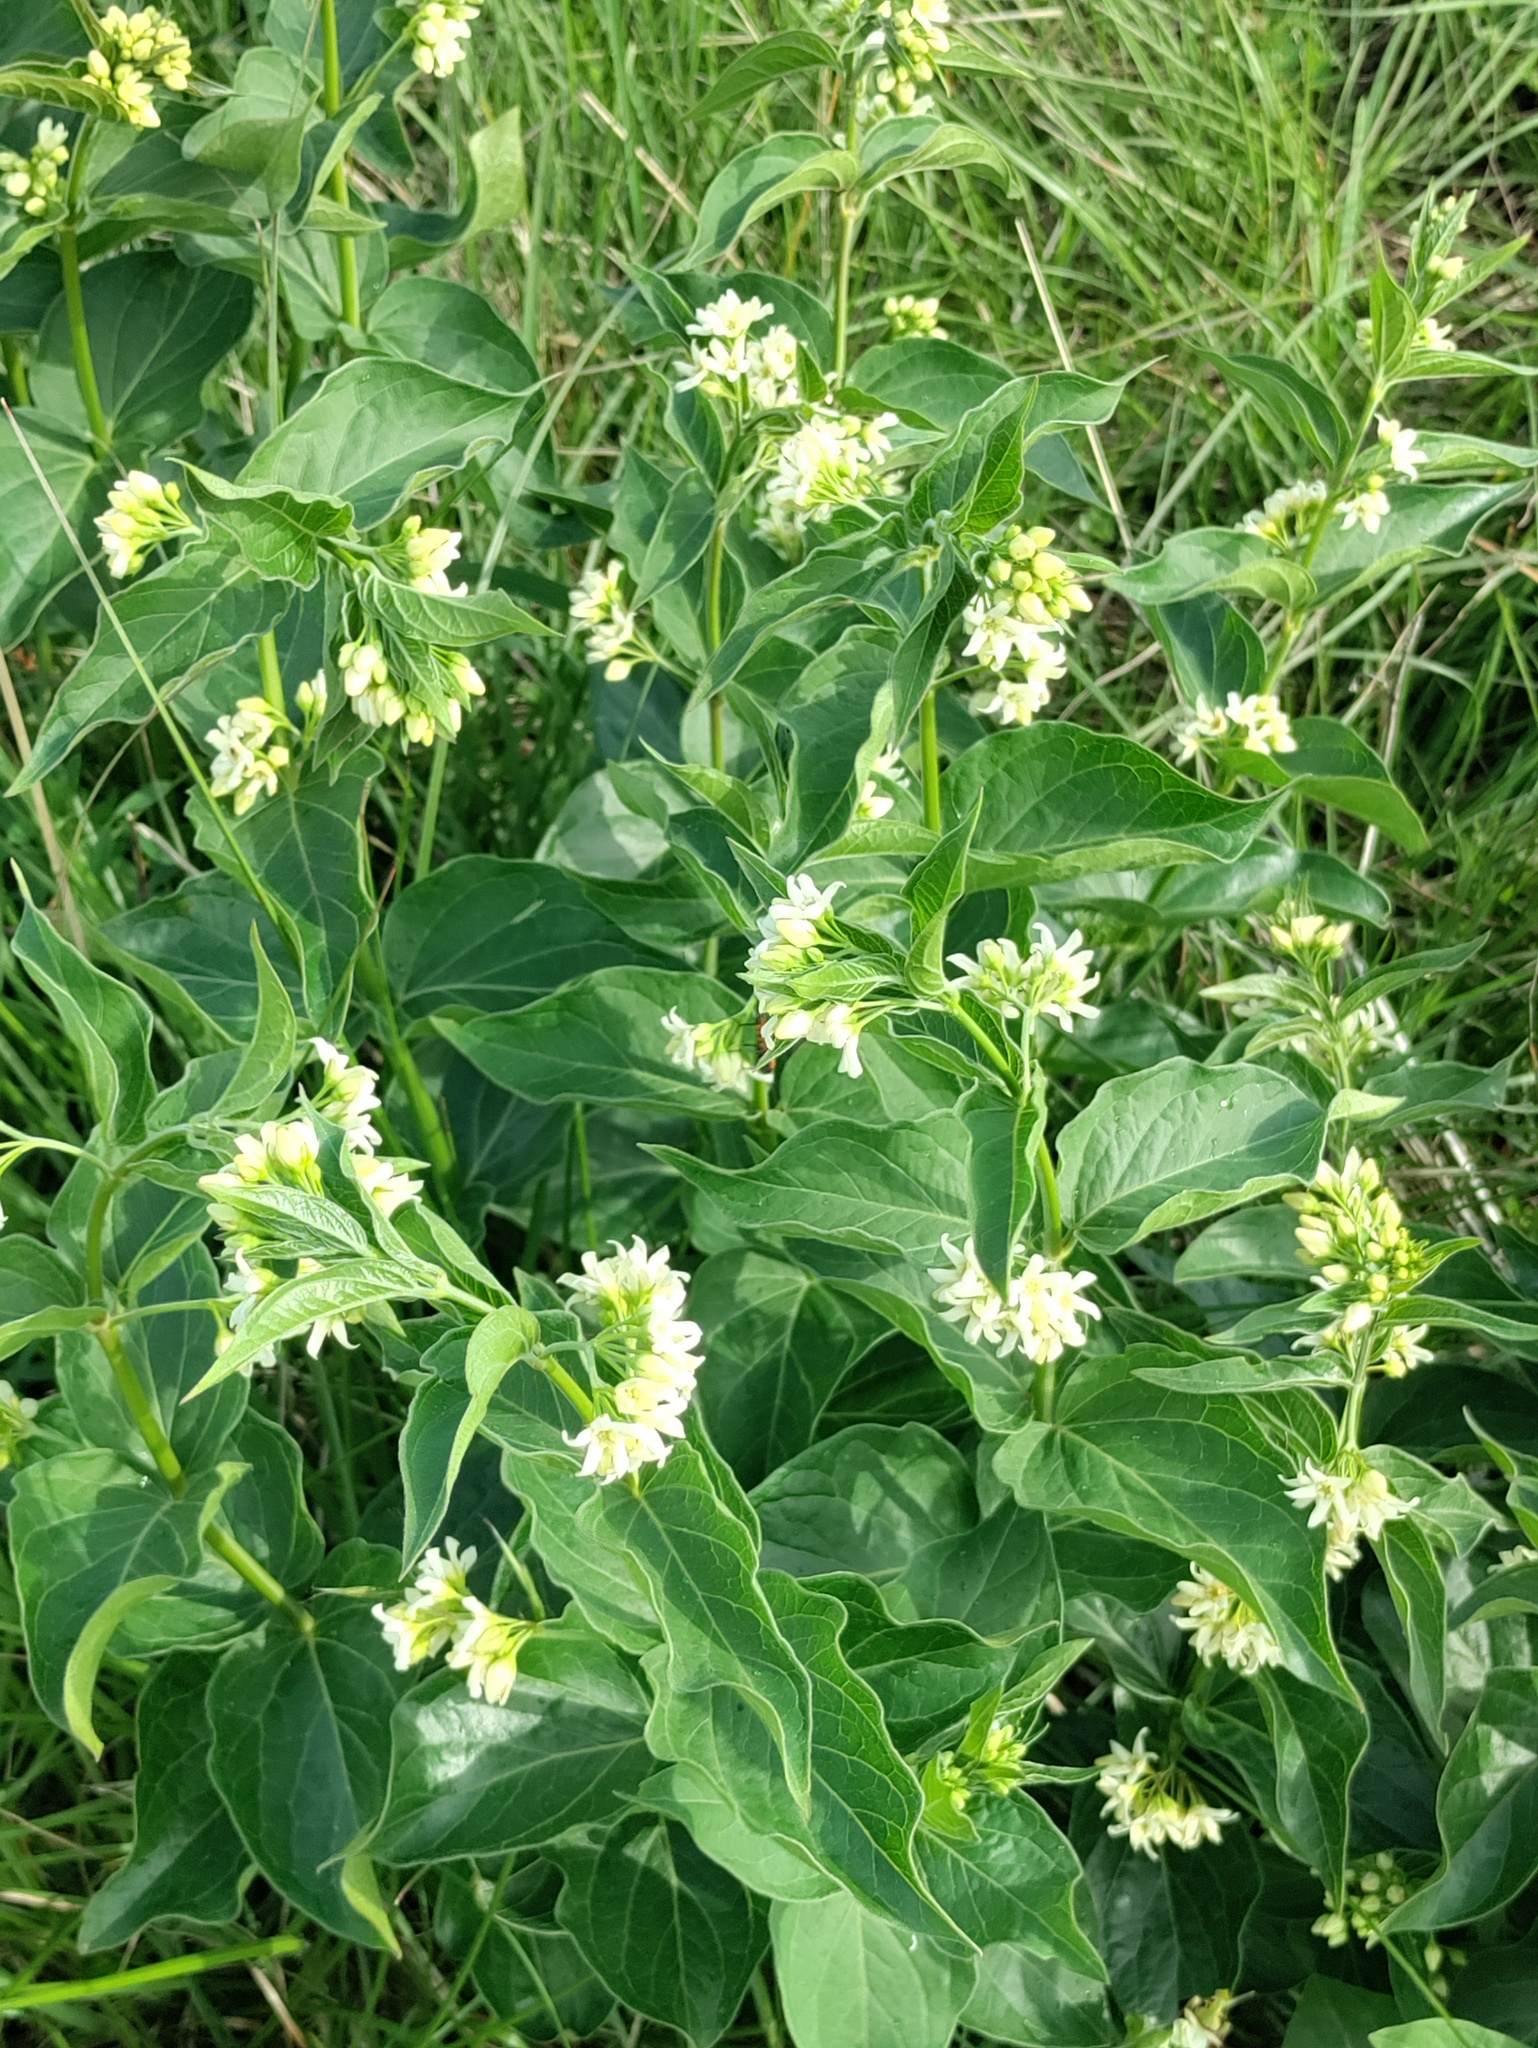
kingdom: Plantae
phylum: Tracheophyta
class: Magnoliopsida
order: Gentianales
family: Apocynaceae
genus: Vincetoxicum
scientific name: Vincetoxicum hirundinaria
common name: White swallowwort
